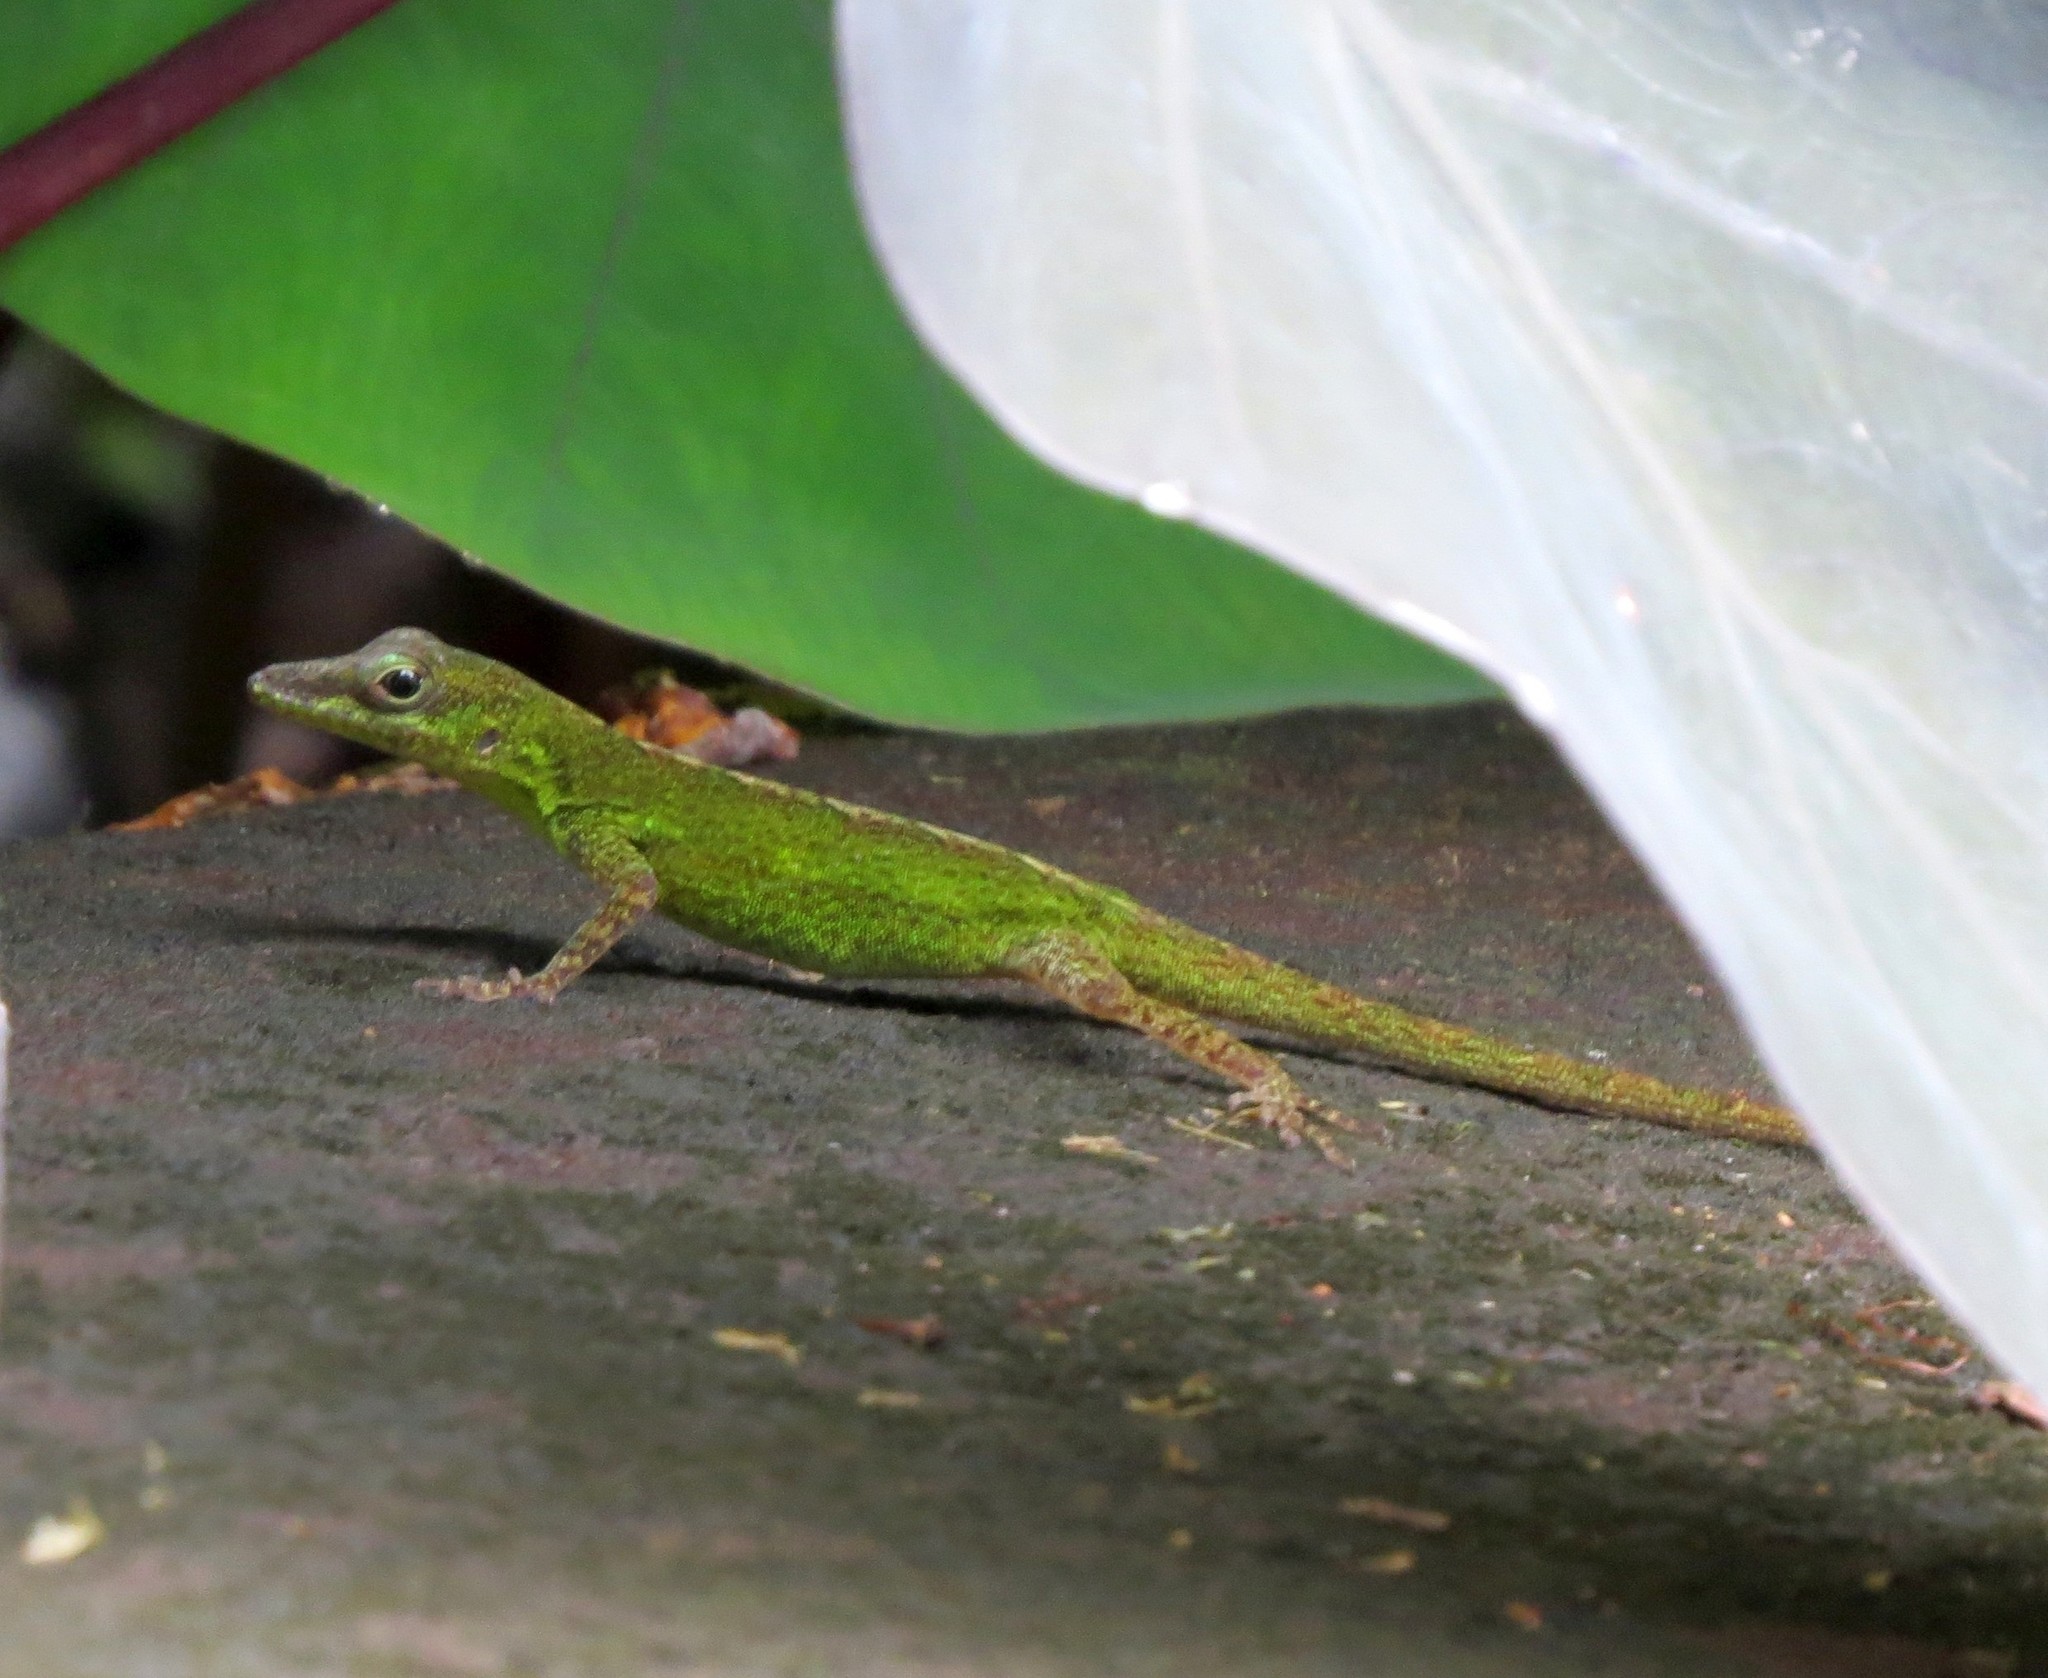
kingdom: Animalia
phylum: Chordata
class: Squamata
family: Dactyloidae
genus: Anolis
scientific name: Anolis marmoratus
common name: Guadeloupe anole
